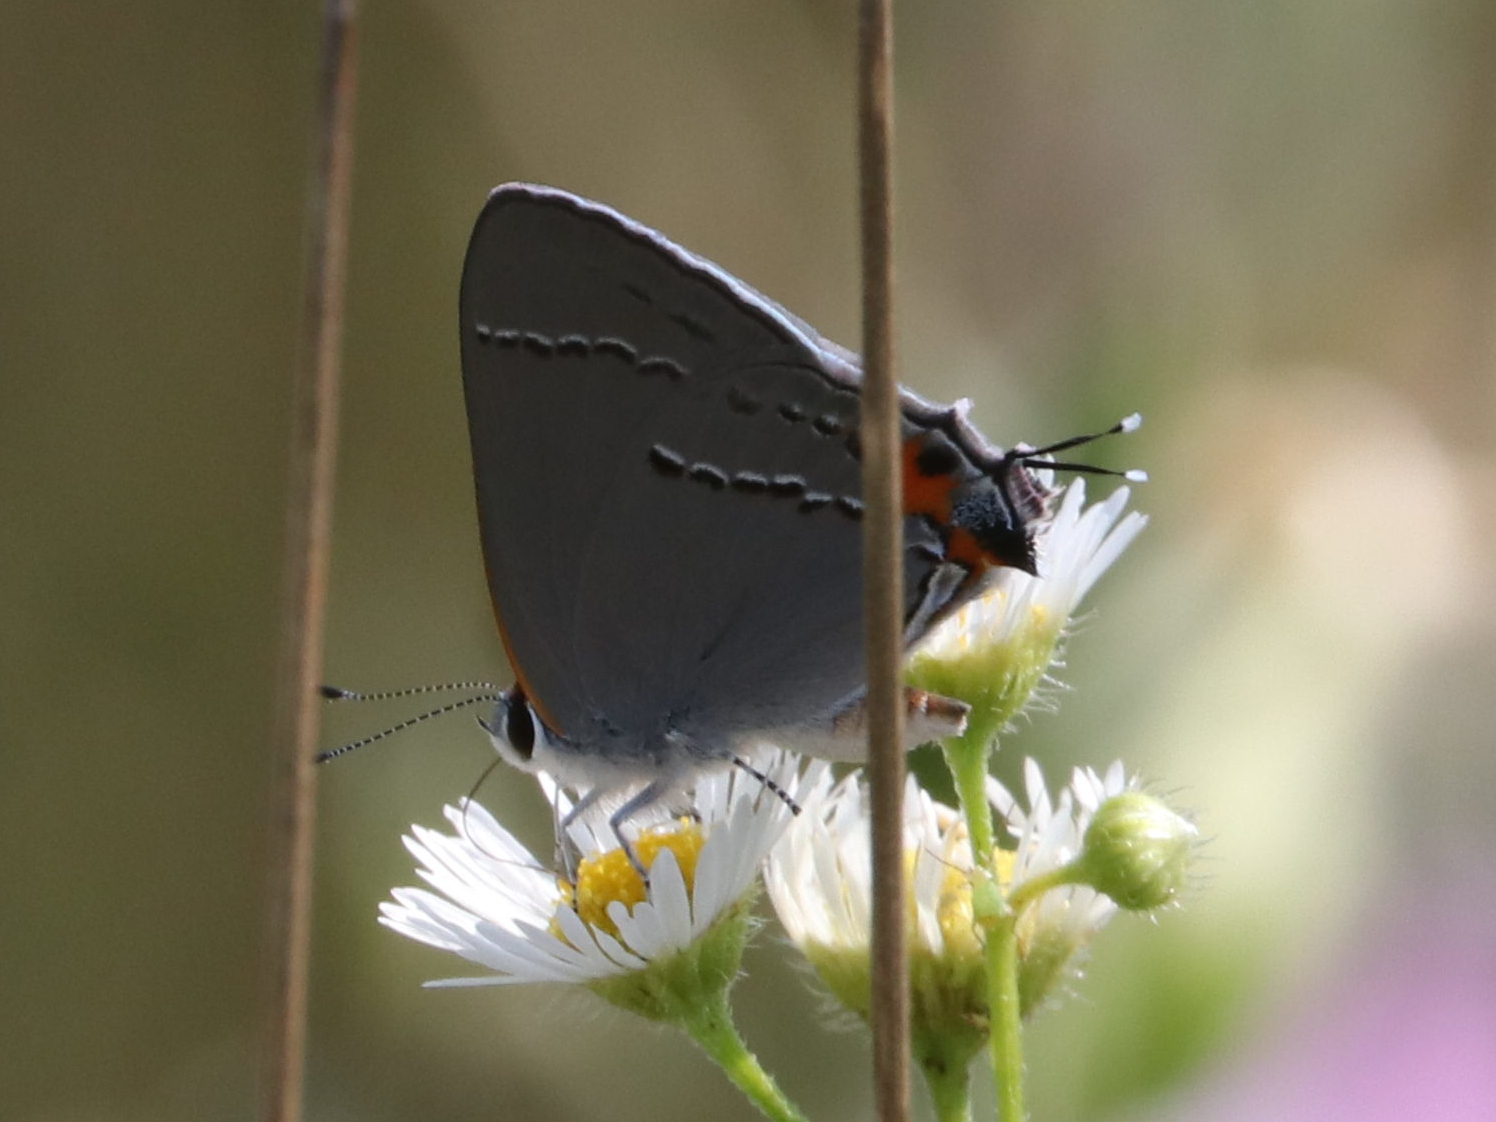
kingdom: Animalia
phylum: Arthropoda
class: Insecta
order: Lepidoptera
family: Lycaenidae
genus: Strymon
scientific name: Strymon melinus
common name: Gray hairstreak
